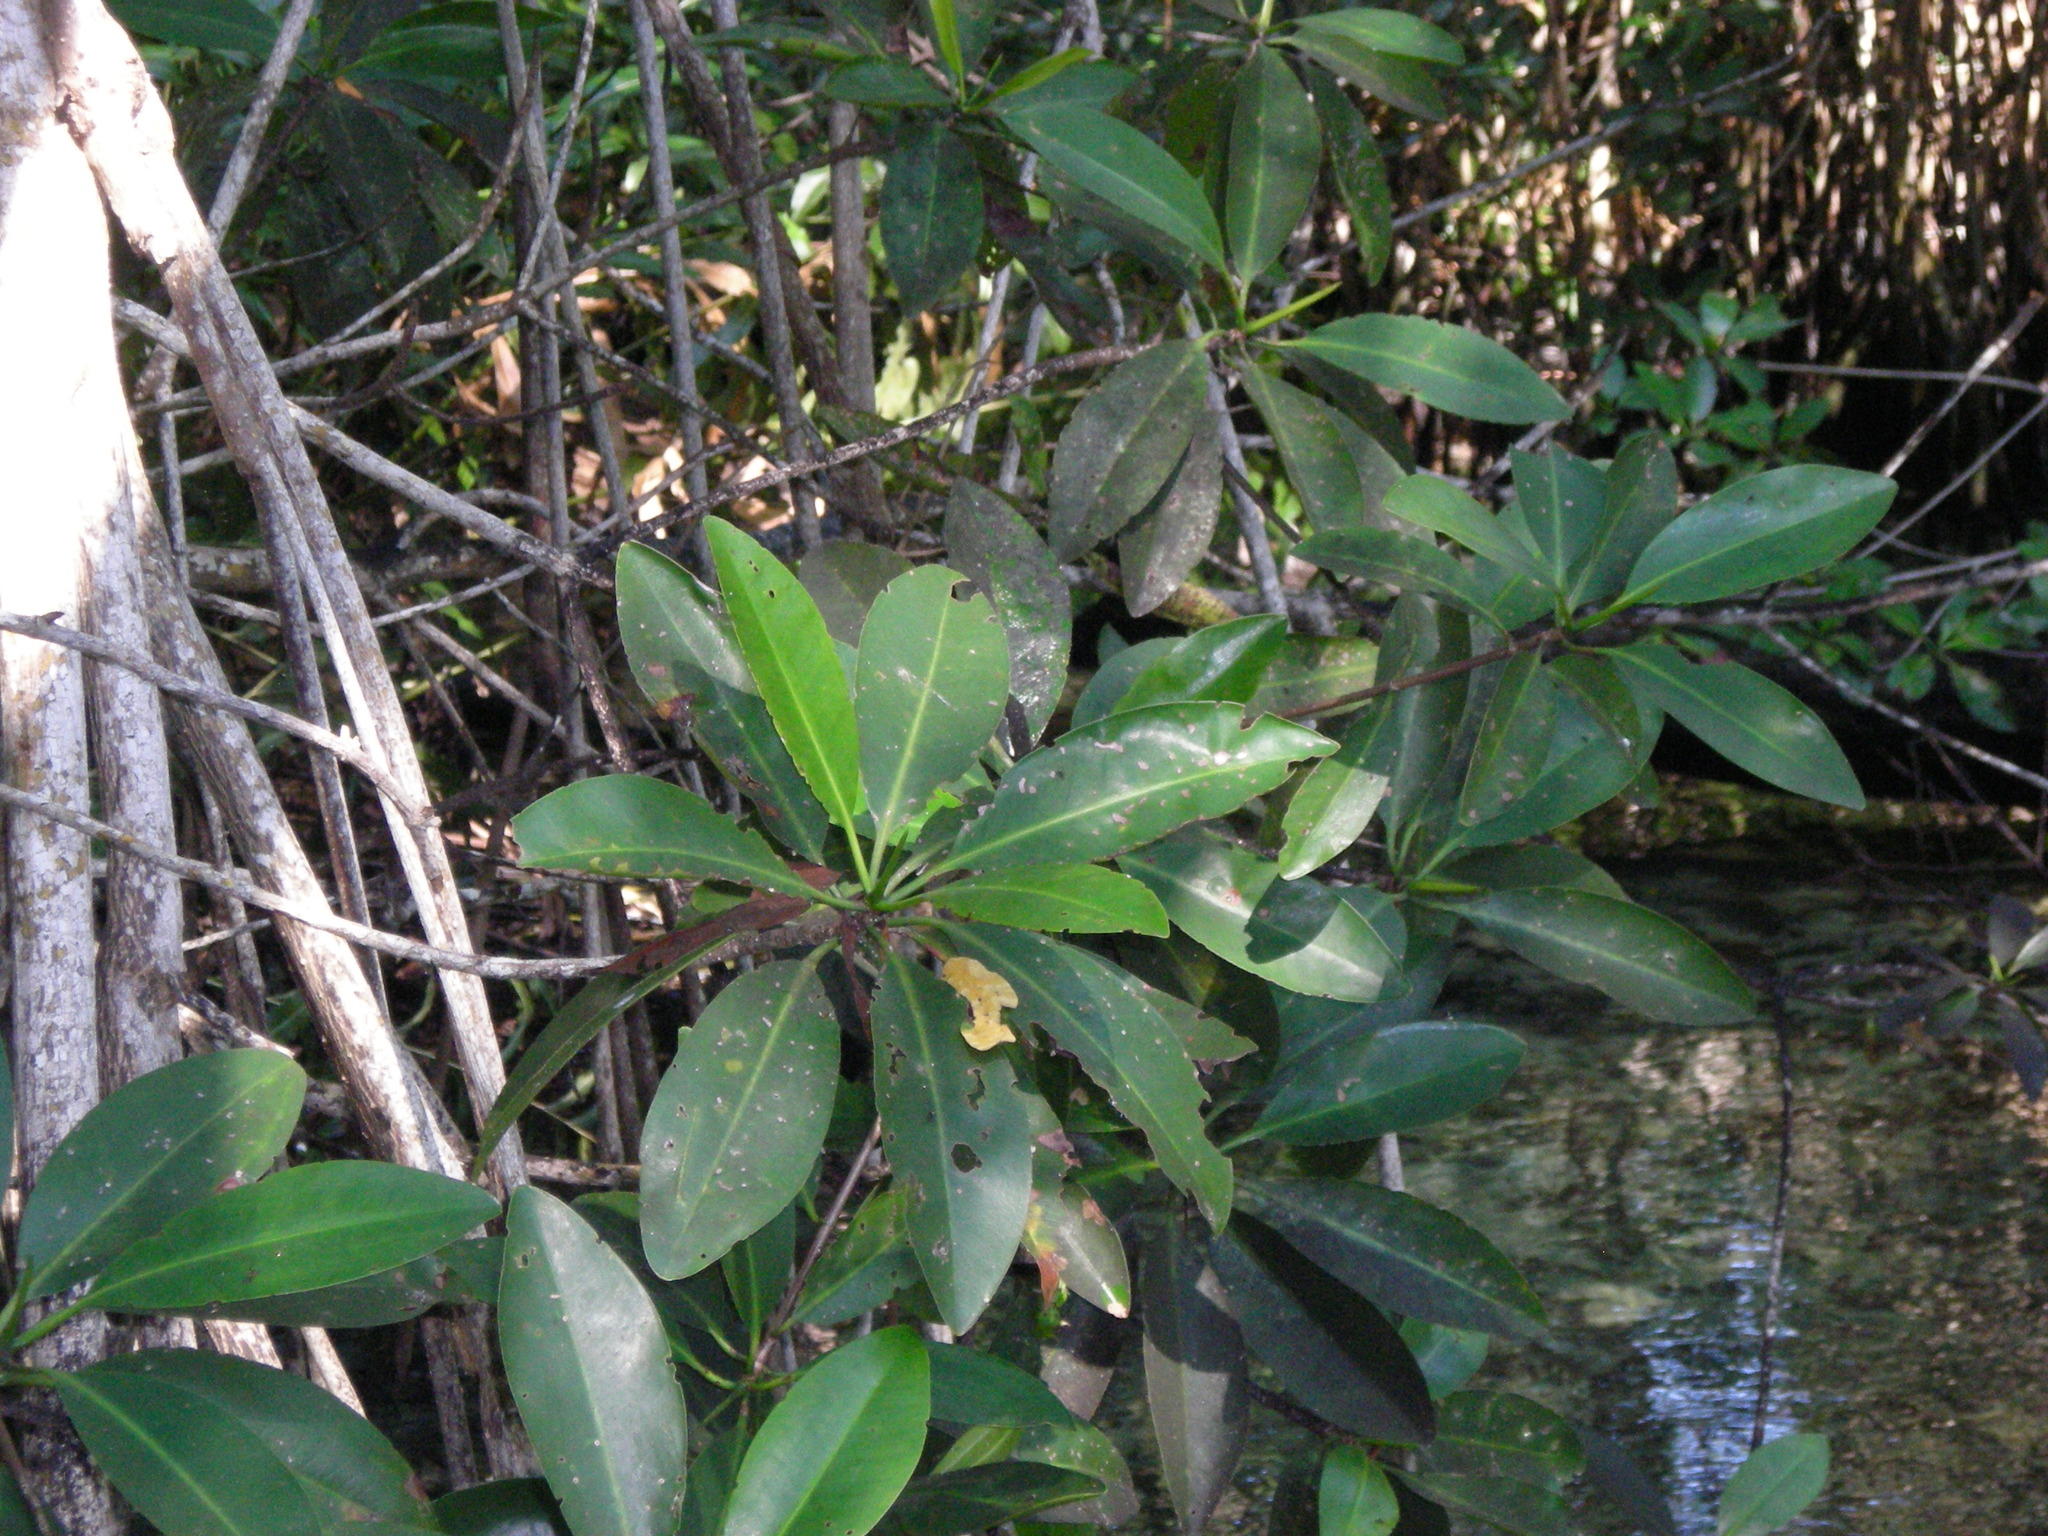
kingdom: Plantae
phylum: Tracheophyta
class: Magnoliopsida
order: Malpighiales
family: Rhizophoraceae
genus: Rhizophora
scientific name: Rhizophora mangle
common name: Red mangrove
